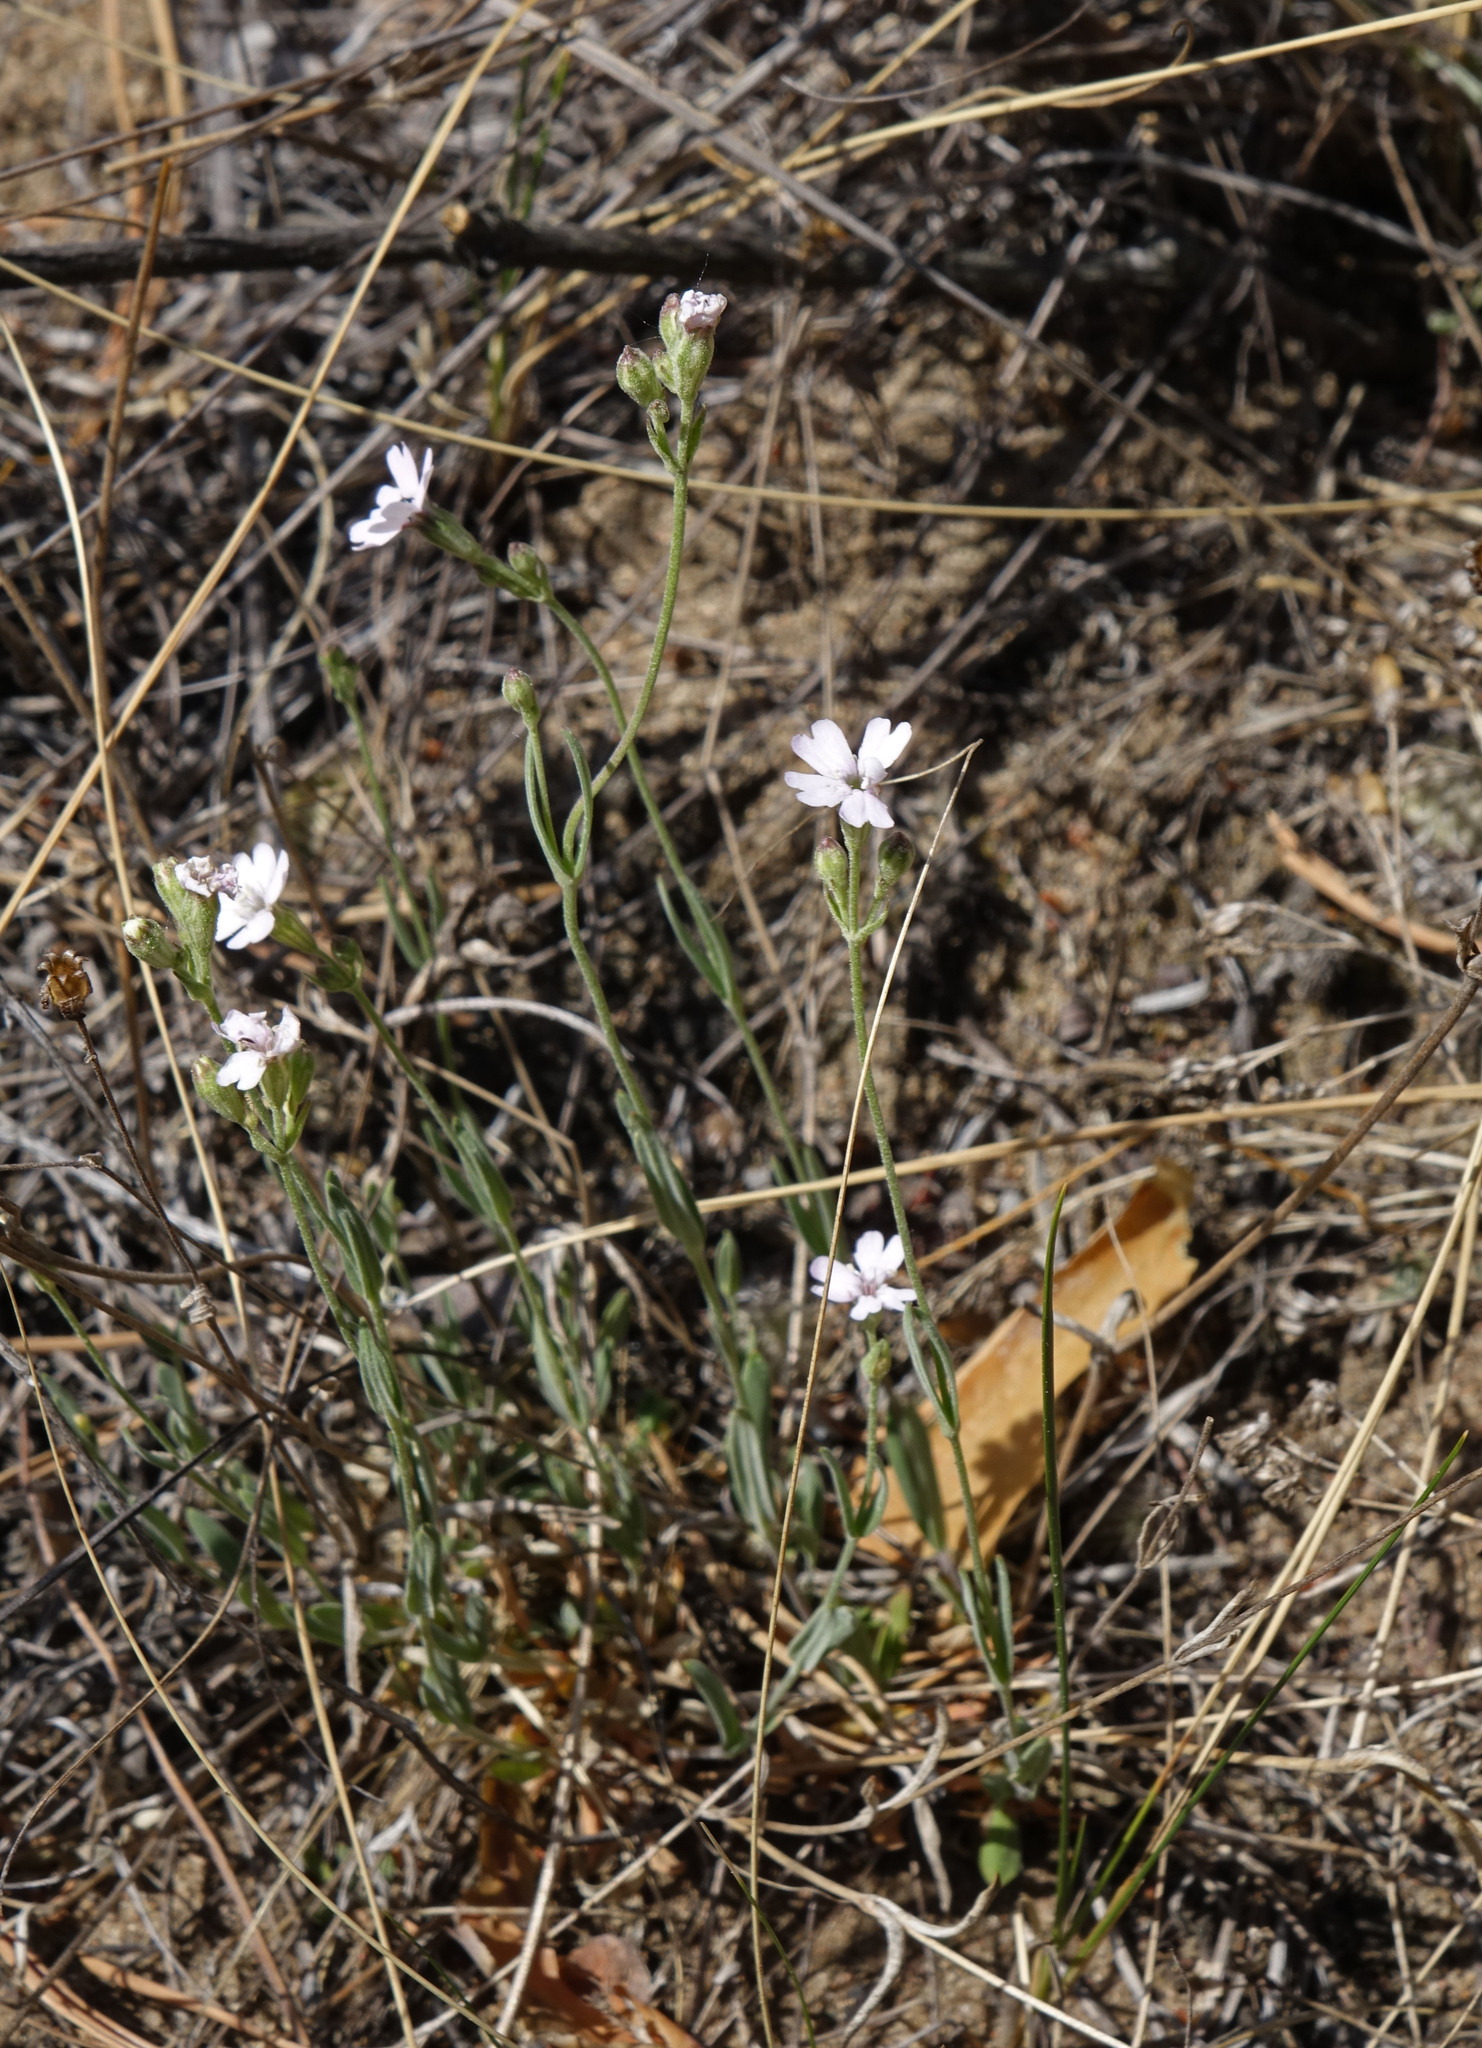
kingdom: Plantae
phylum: Tracheophyta
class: Magnoliopsida
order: Caryophyllales
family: Caryophyllaceae
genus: Silene
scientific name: Silene orientalimongolica
